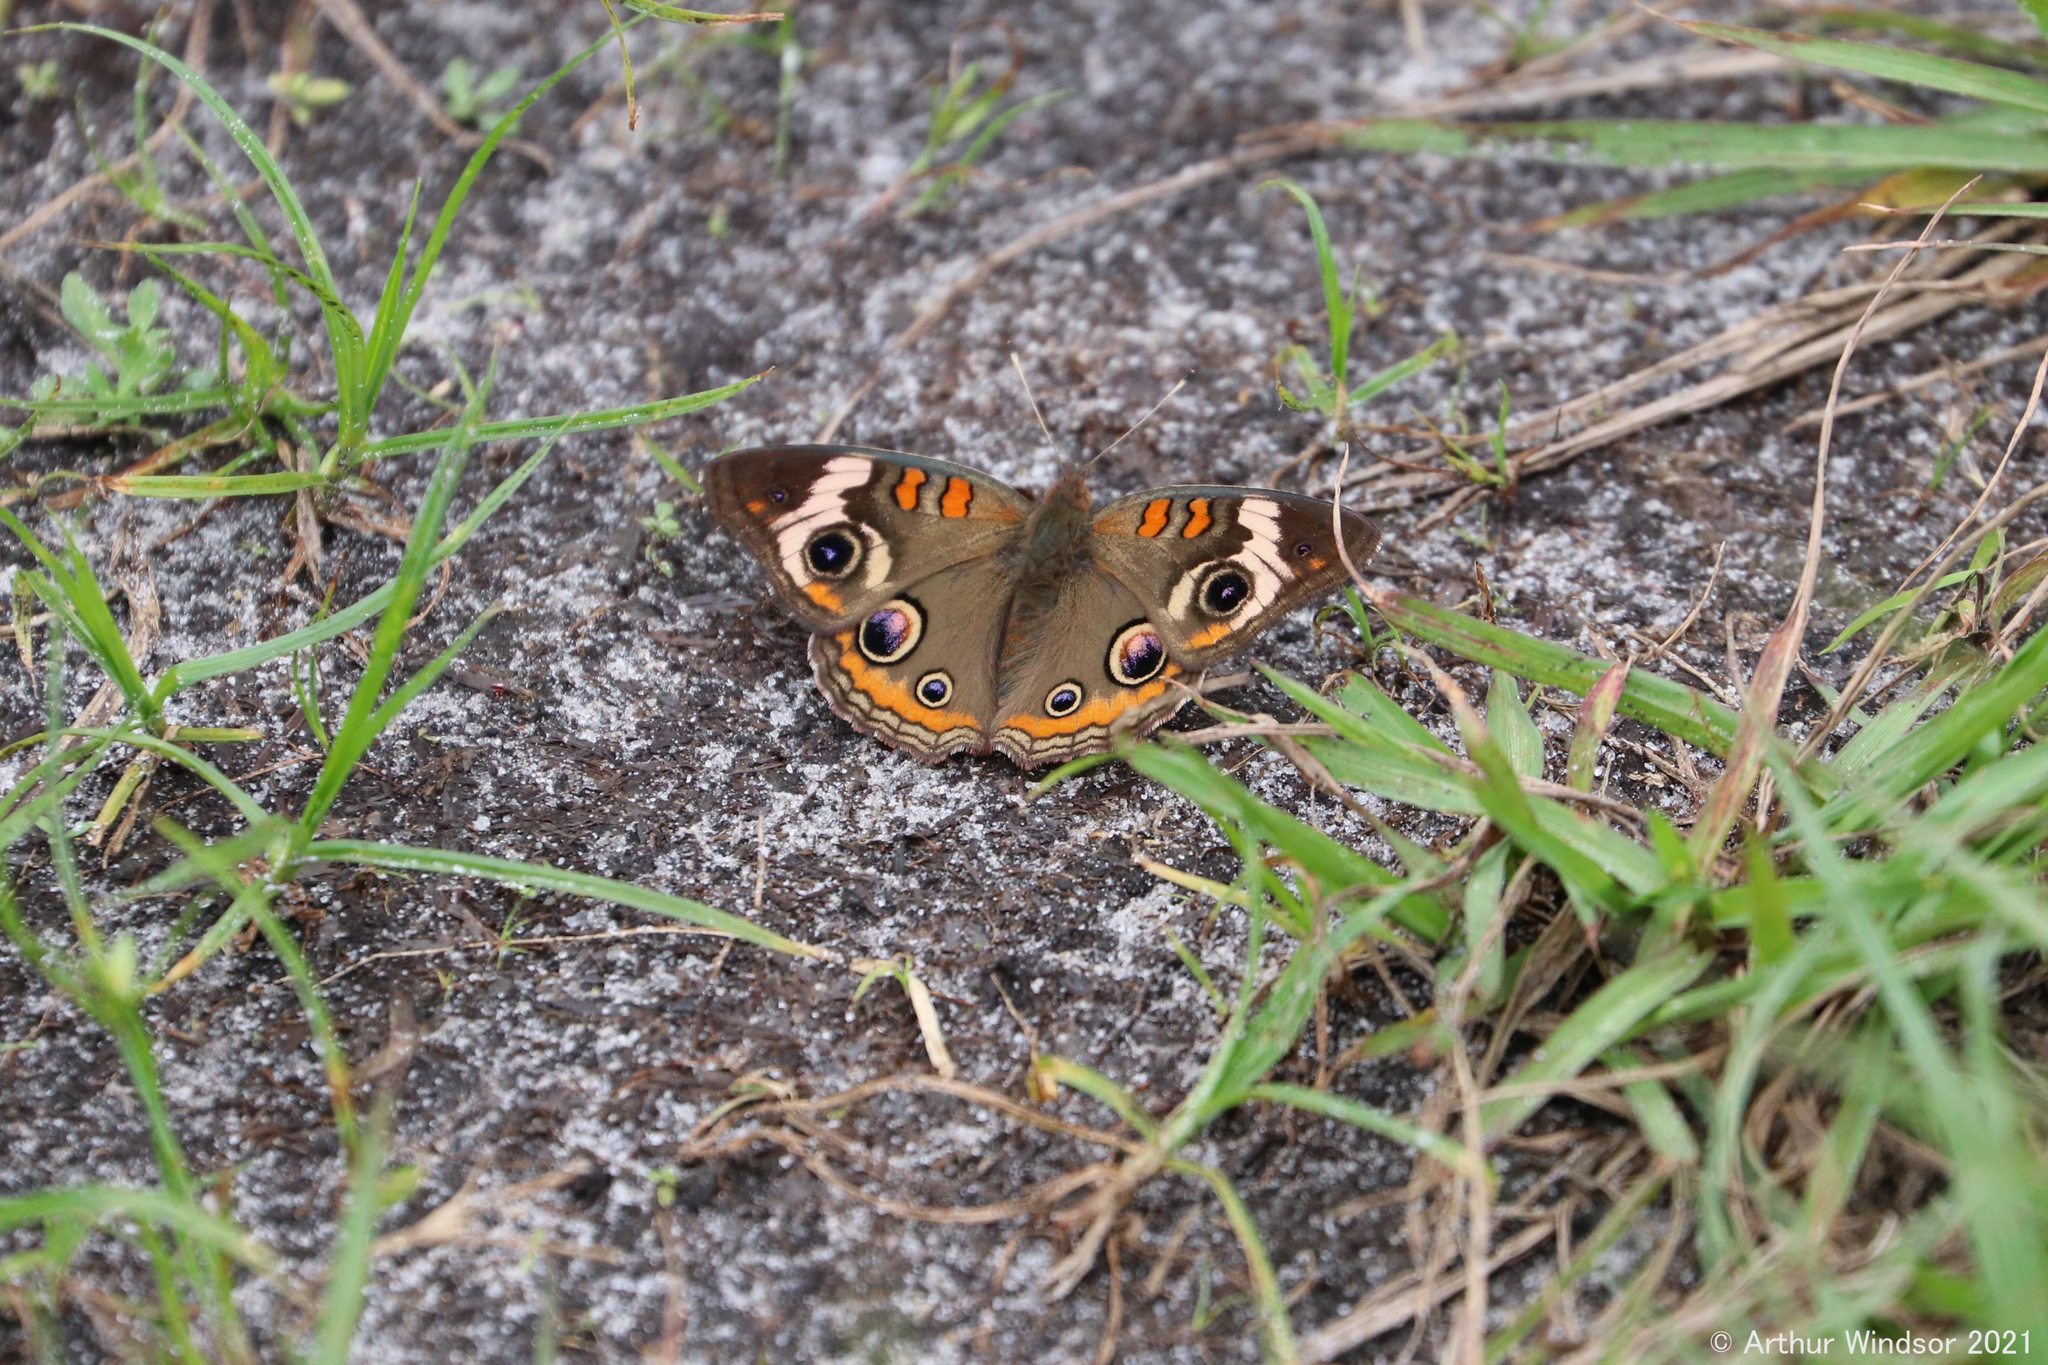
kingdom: Animalia
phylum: Arthropoda
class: Insecta
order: Lepidoptera
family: Nymphalidae
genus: Junonia
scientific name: Junonia coenia
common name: Common buckeye
